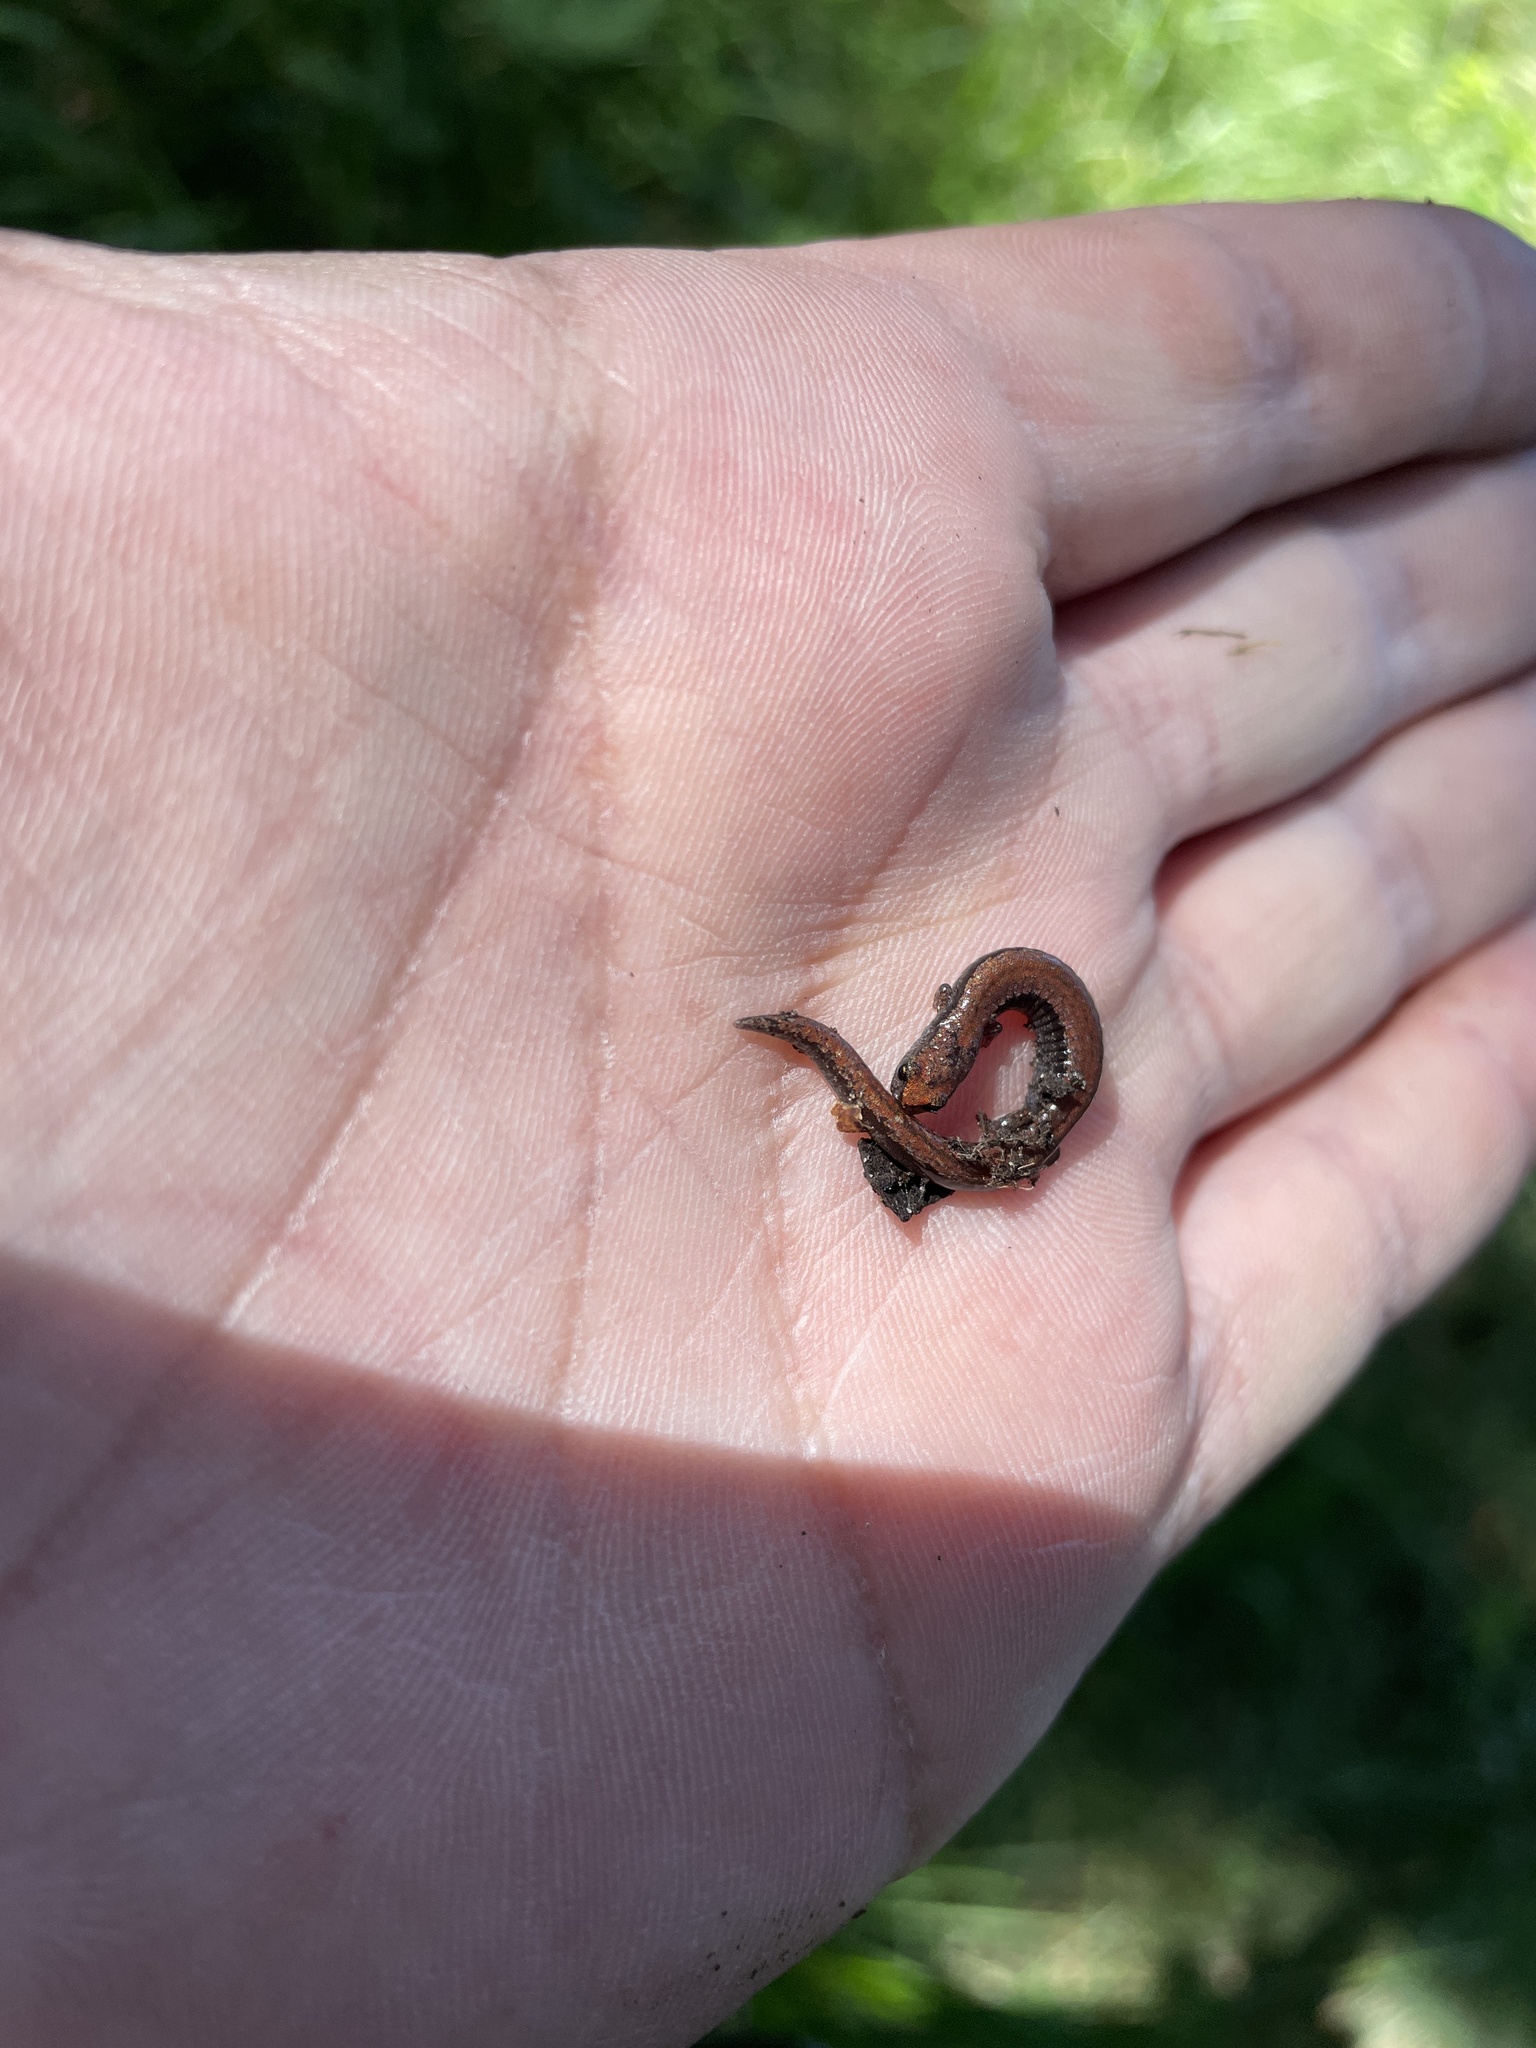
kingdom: Animalia
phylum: Chordata
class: Amphibia
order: Caudata
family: Plethodontidae
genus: Batrachoseps
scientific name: Batrachoseps attenuatus
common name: California slender salamander
